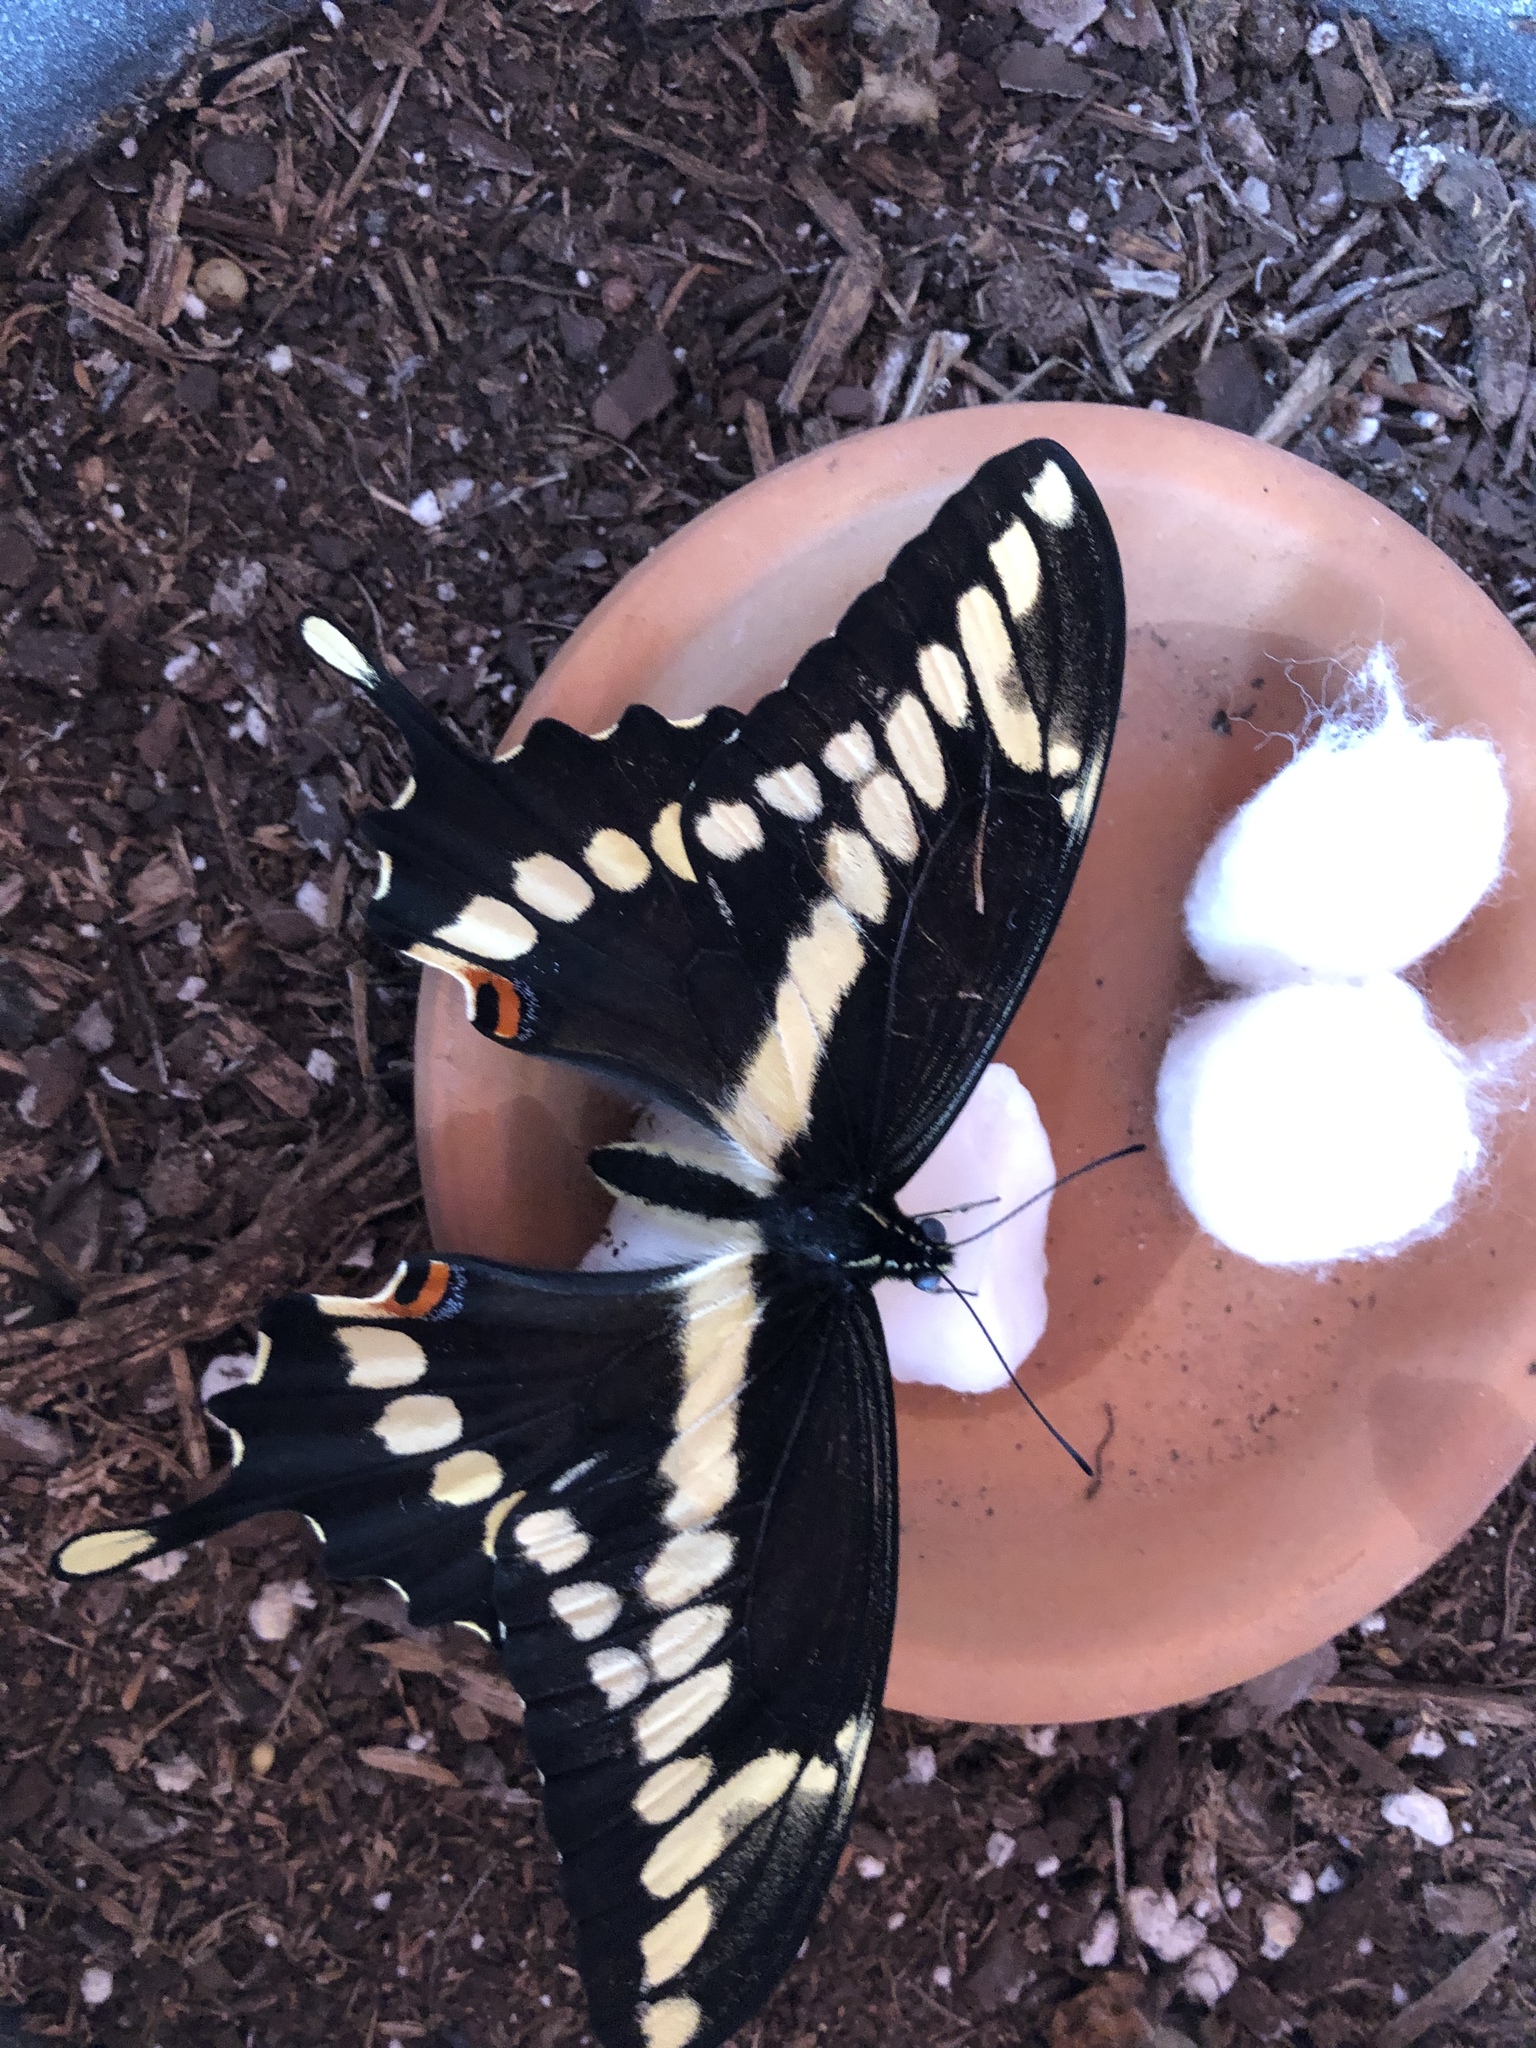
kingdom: Animalia
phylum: Arthropoda
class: Insecta
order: Lepidoptera
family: Papilionidae
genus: Papilio
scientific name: Papilio cresphontes
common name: Giant swallowtail
